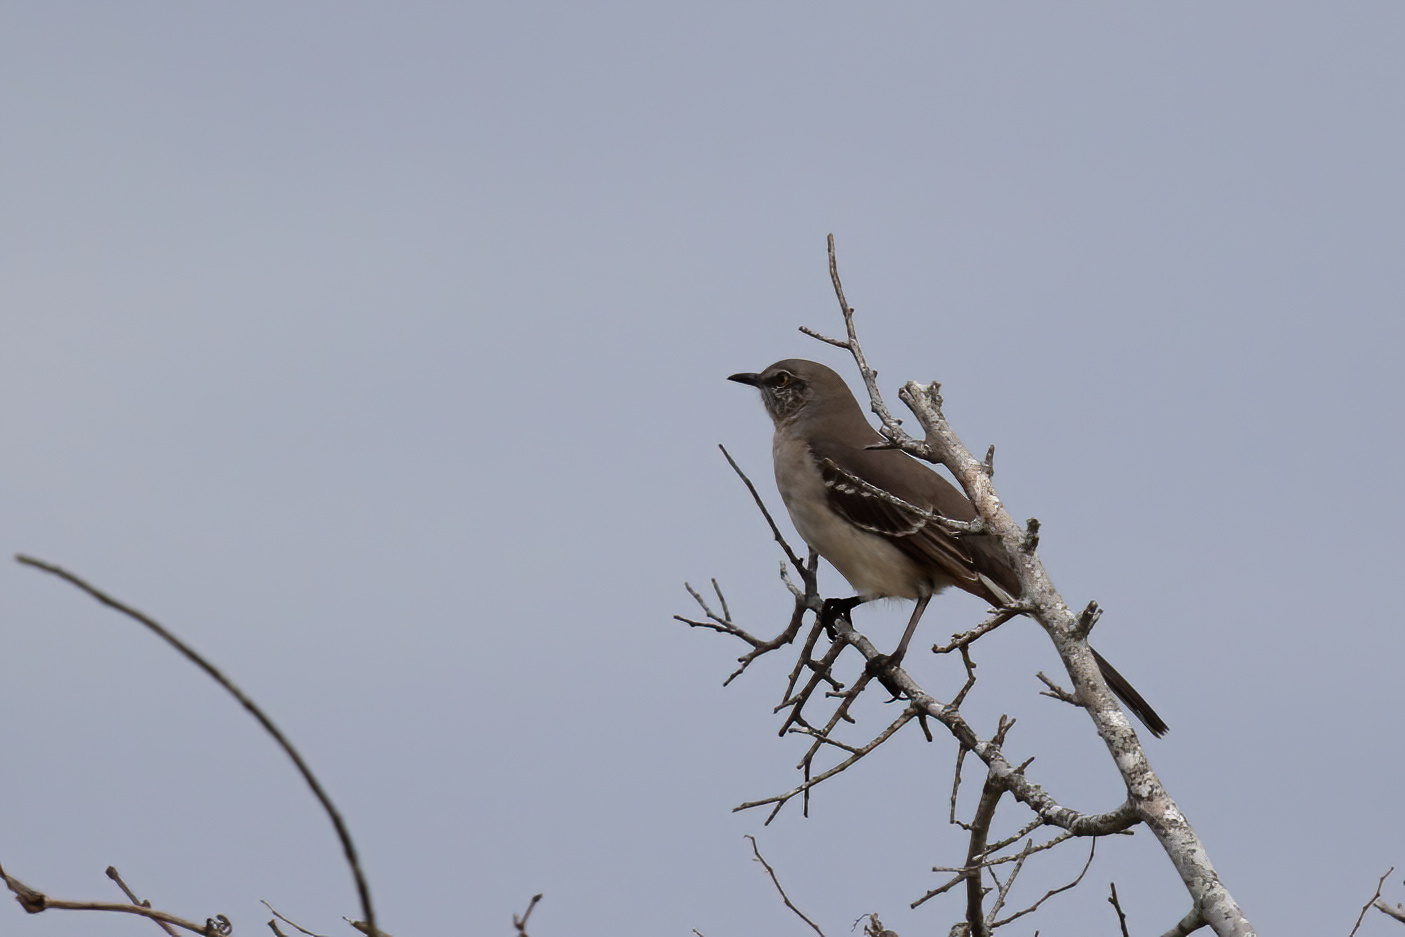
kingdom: Animalia
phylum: Chordata
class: Aves
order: Passeriformes
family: Mimidae
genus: Mimus
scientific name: Mimus polyglottos
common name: Northern mockingbird
